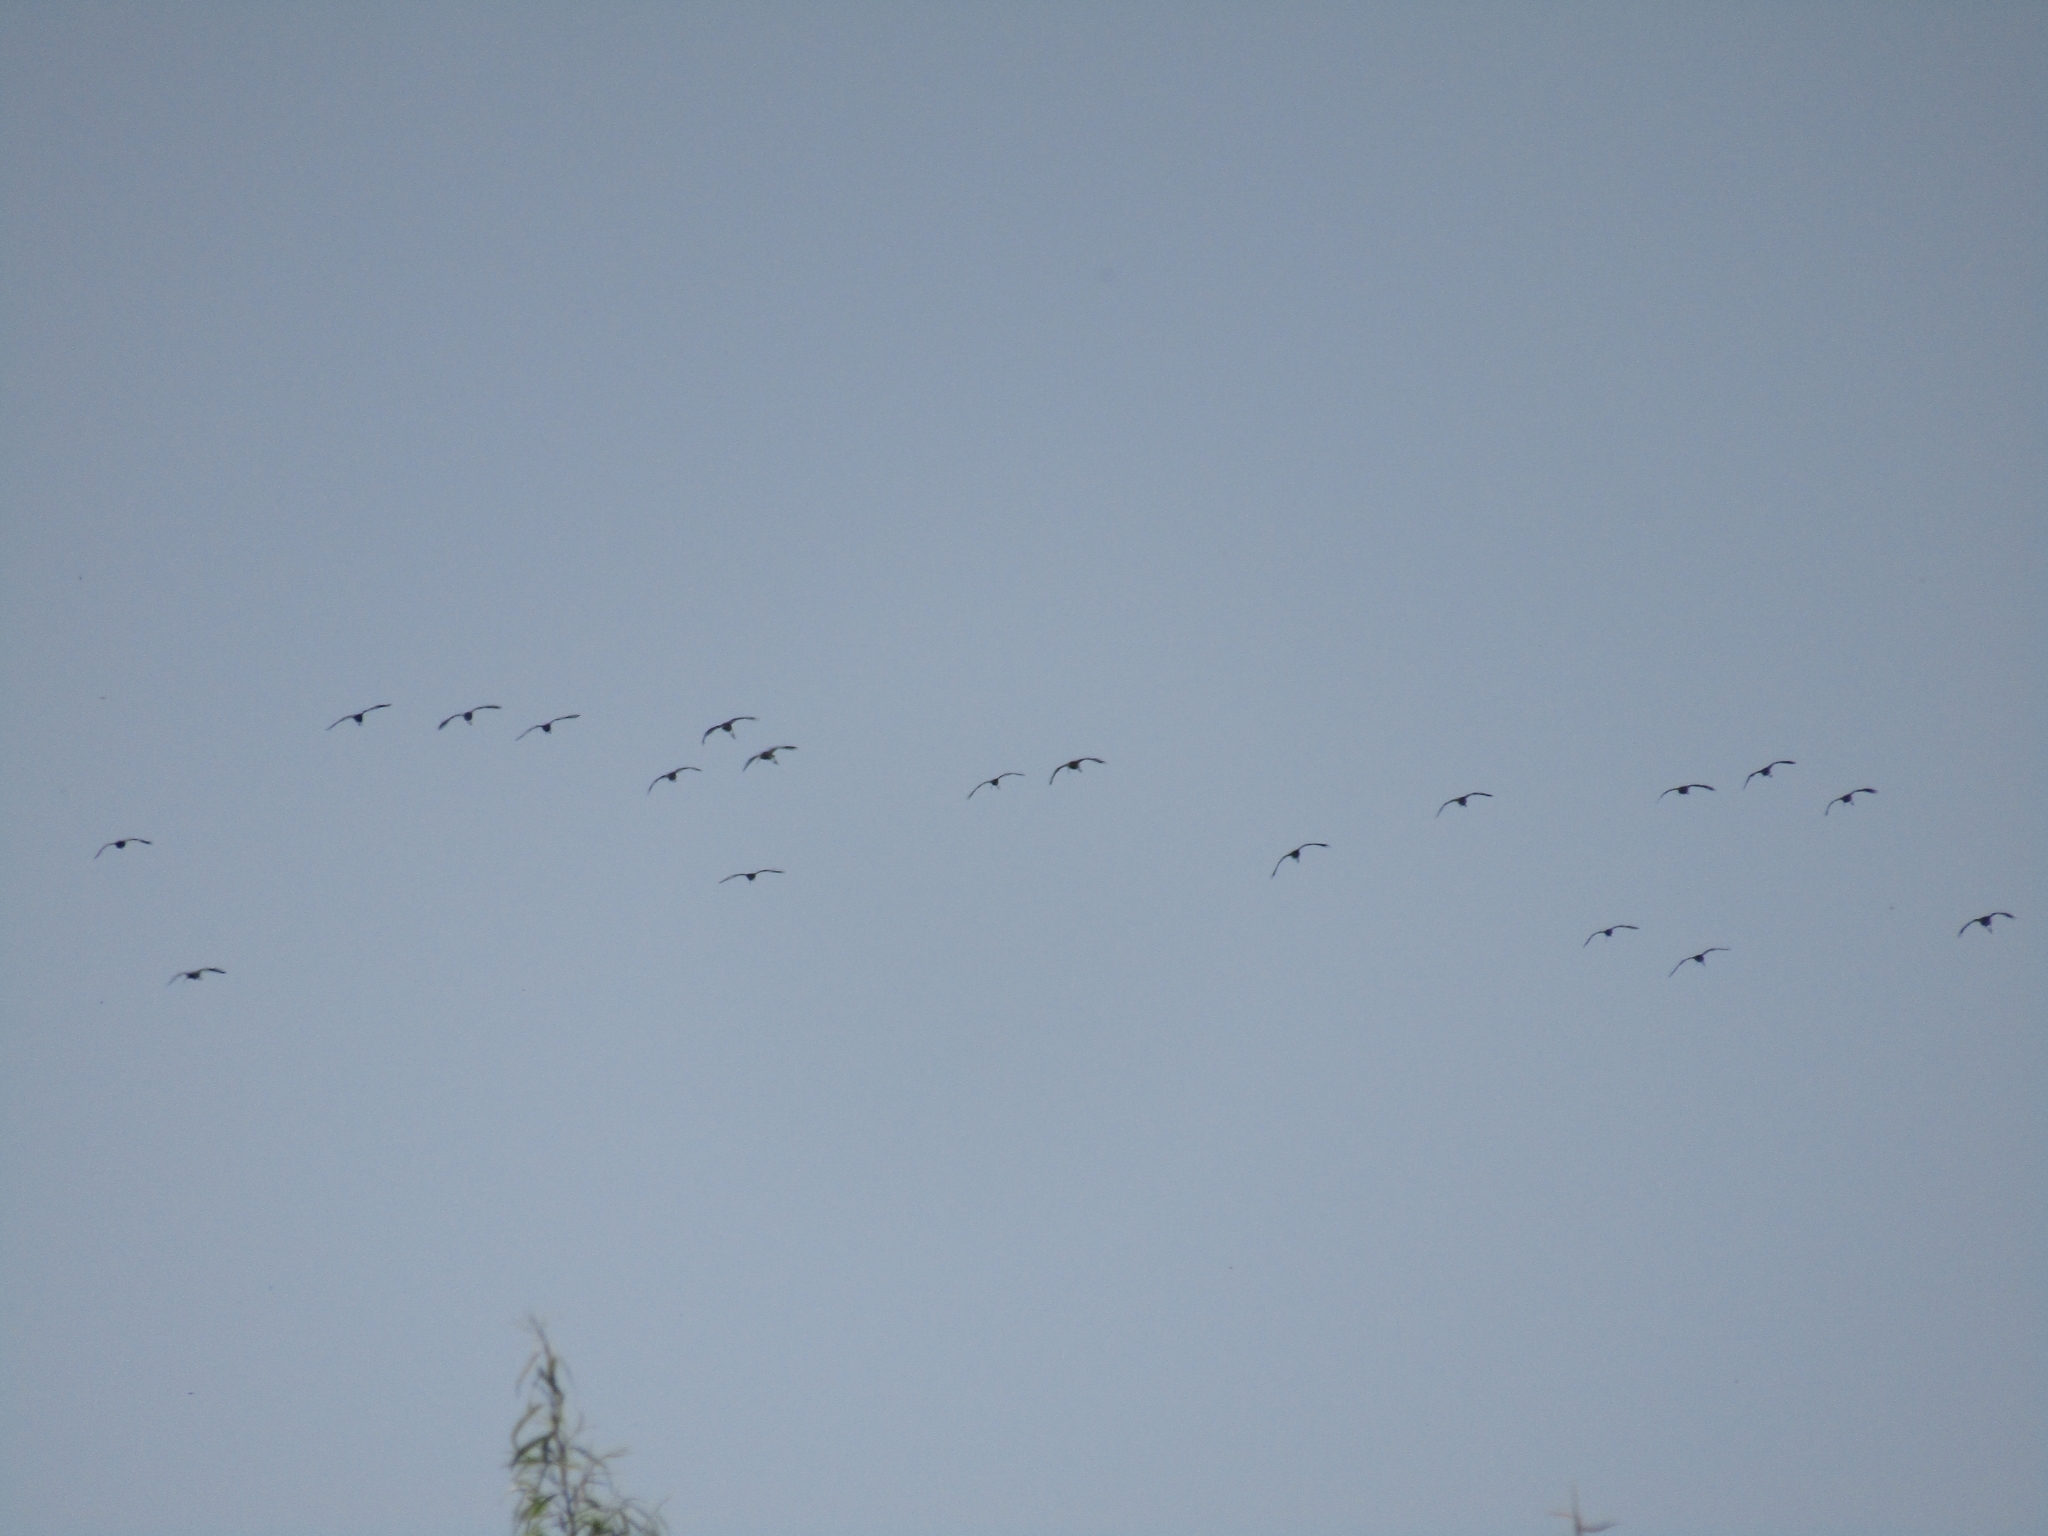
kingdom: Animalia
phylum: Chordata
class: Aves
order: Pelecaniformes
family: Threskiornithidae
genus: Plegadis
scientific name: Plegadis chihi
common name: White-faced ibis
